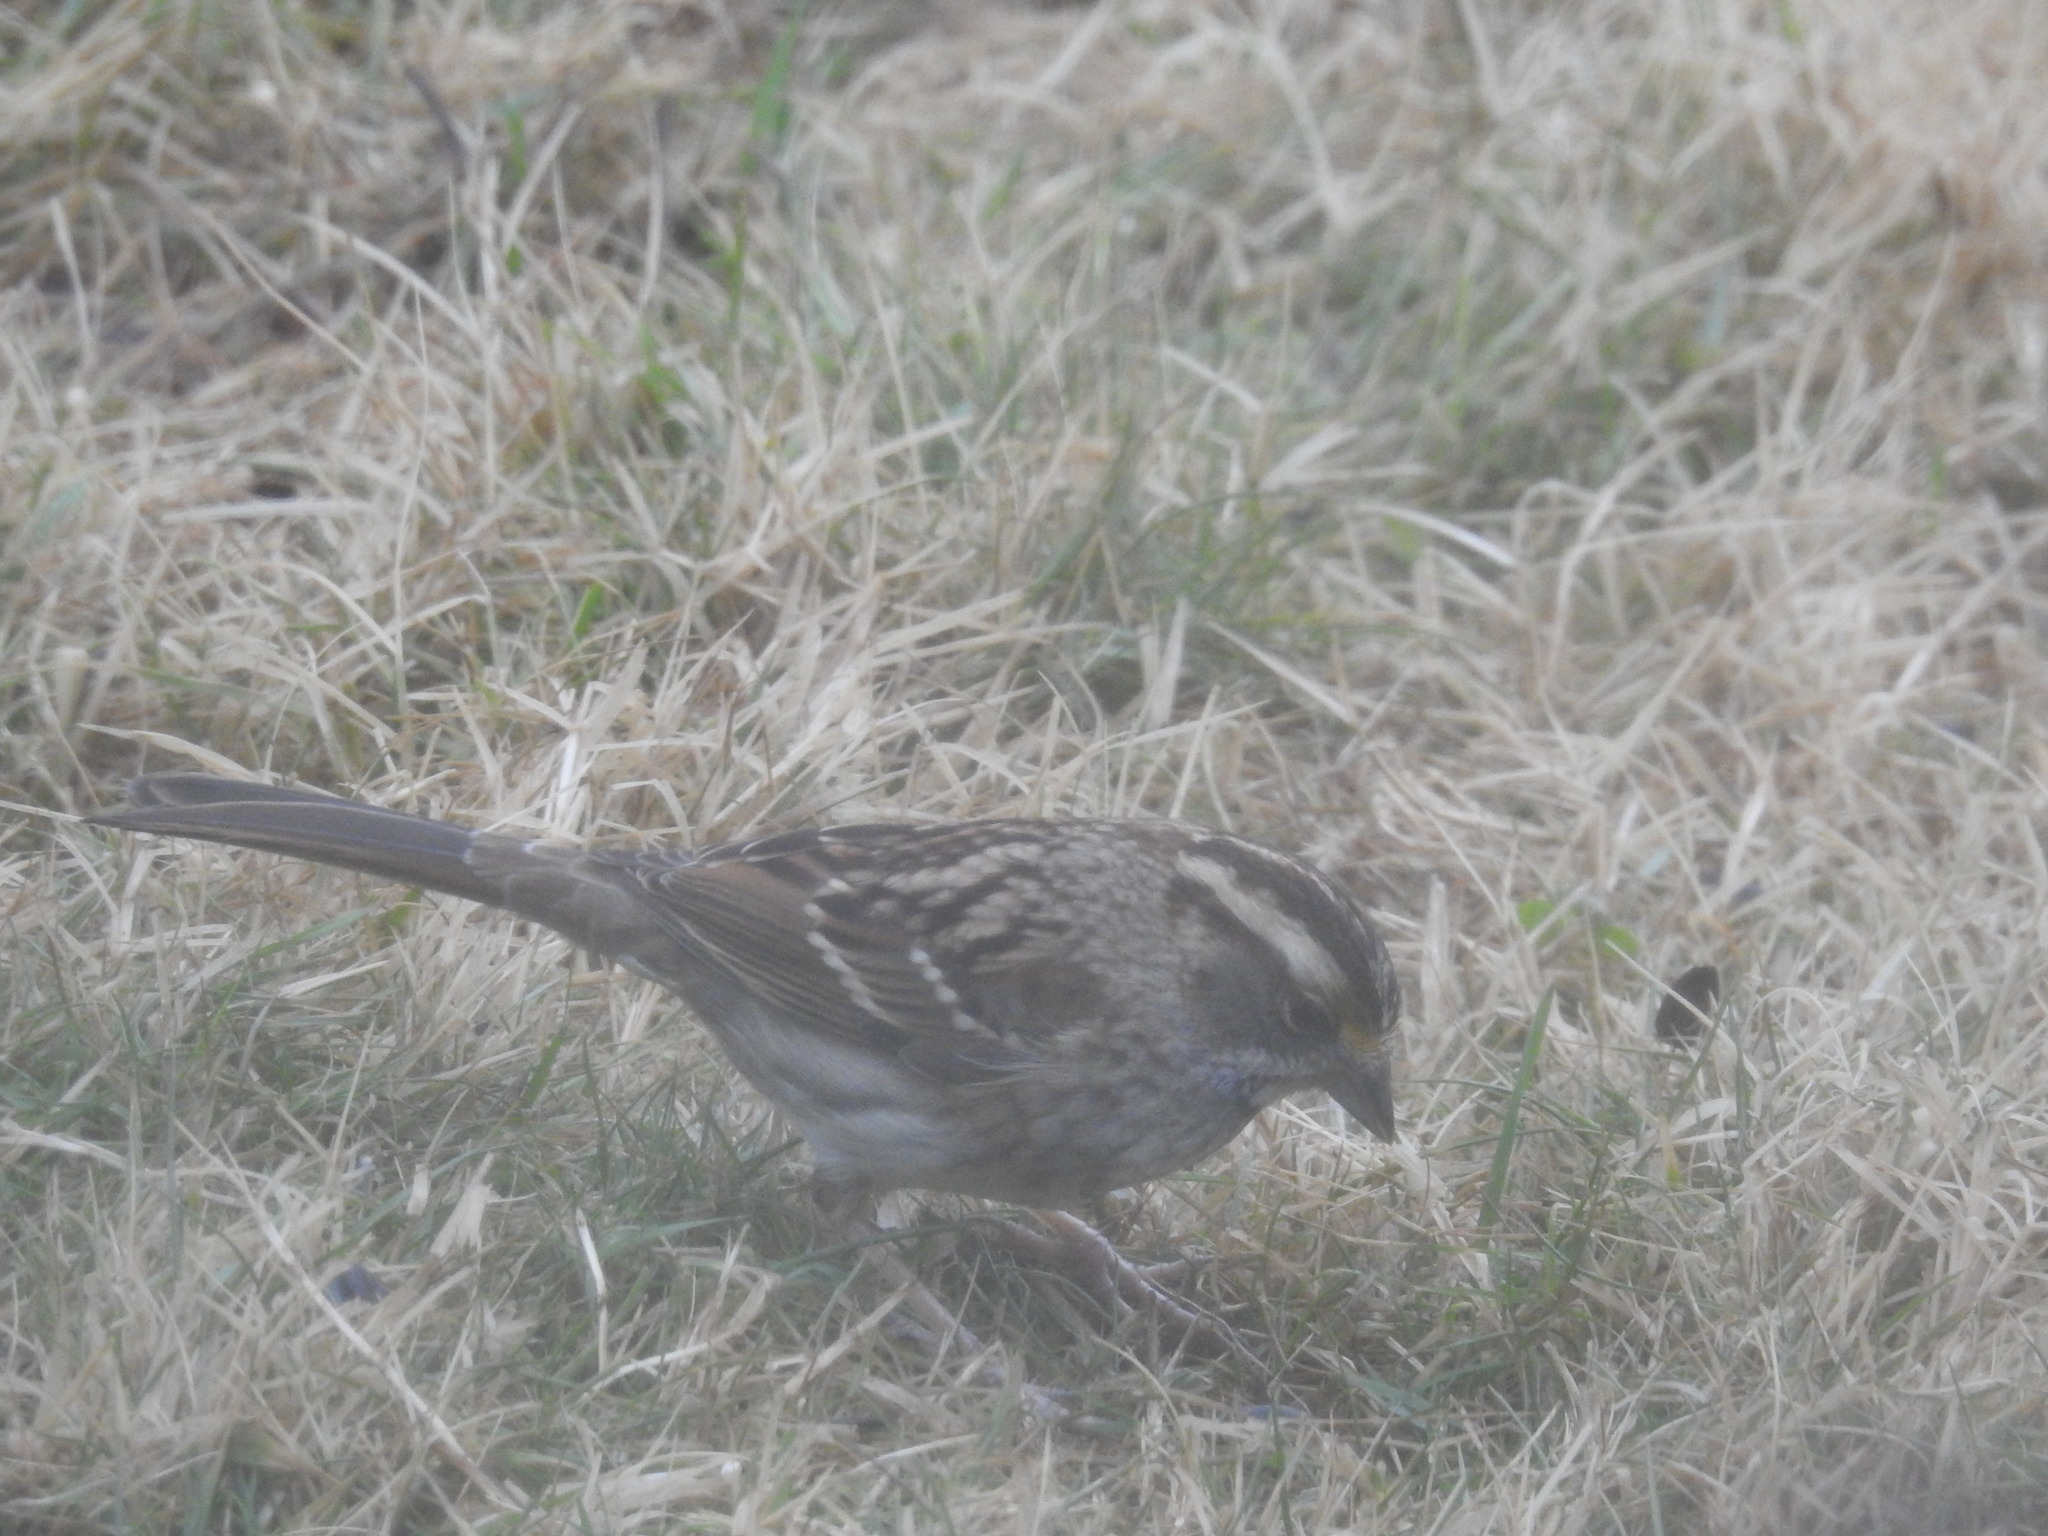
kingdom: Animalia
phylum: Chordata
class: Aves
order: Passeriformes
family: Passerellidae
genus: Zonotrichia
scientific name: Zonotrichia albicollis
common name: White-throated sparrow
